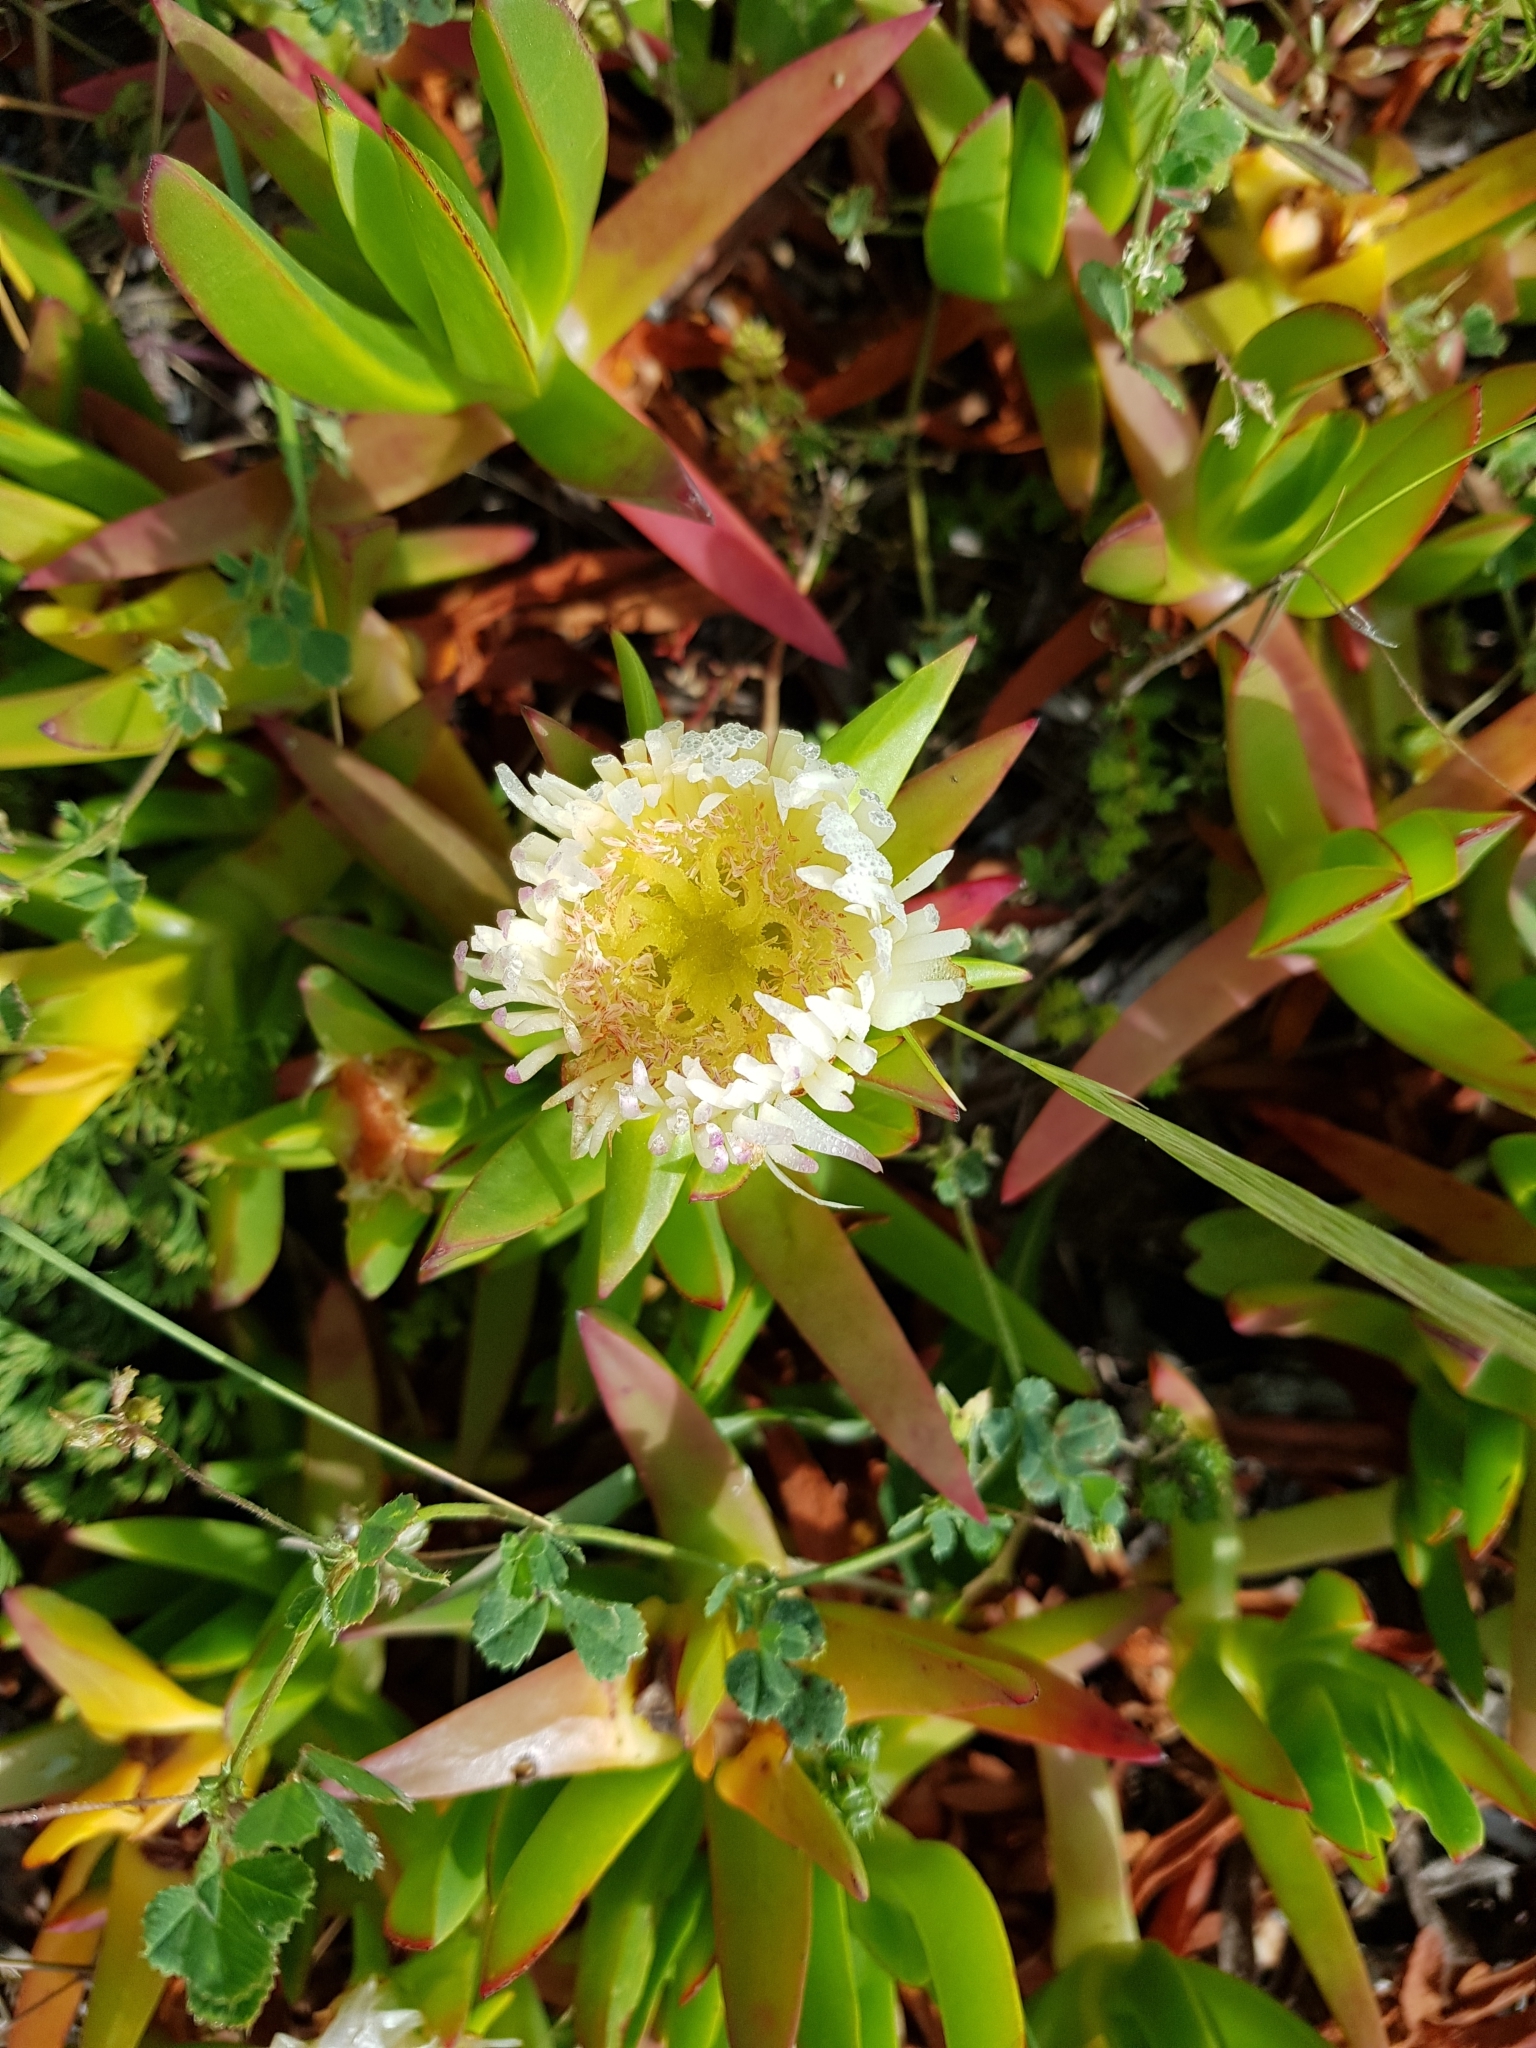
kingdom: Plantae
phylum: Tracheophyta
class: Magnoliopsida
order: Caryophyllales
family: Aizoaceae
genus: Carpobrotus
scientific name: Carpobrotus edulis
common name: Hottentot-fig
